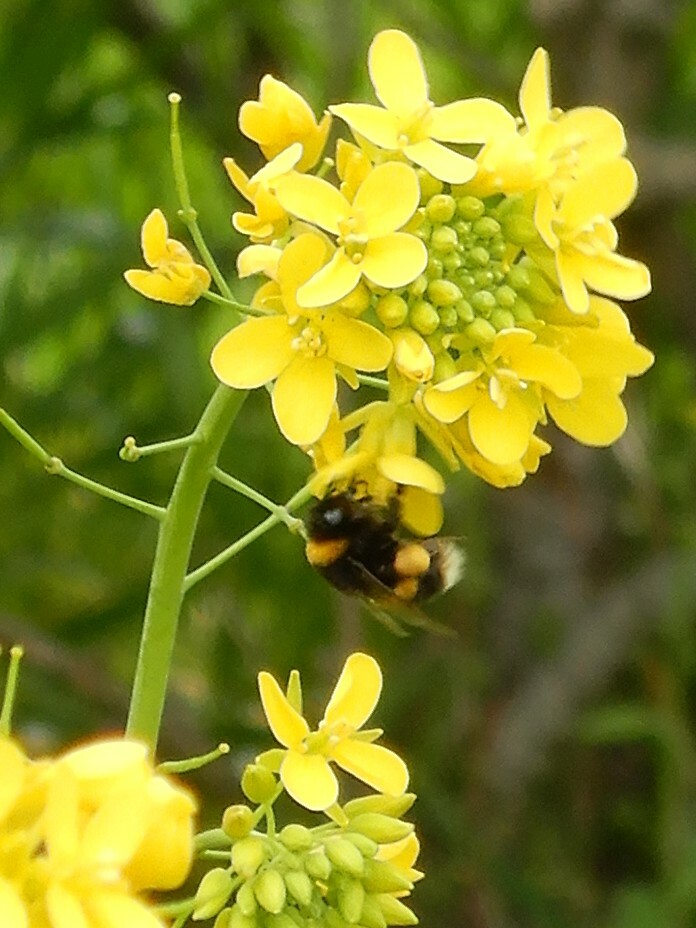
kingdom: Animalia
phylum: Arthropoda
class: Insecta
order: Hymenoptera
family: Apidae
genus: Bombus
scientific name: Bombus terrestris
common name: Buff-tailed bumblebee
